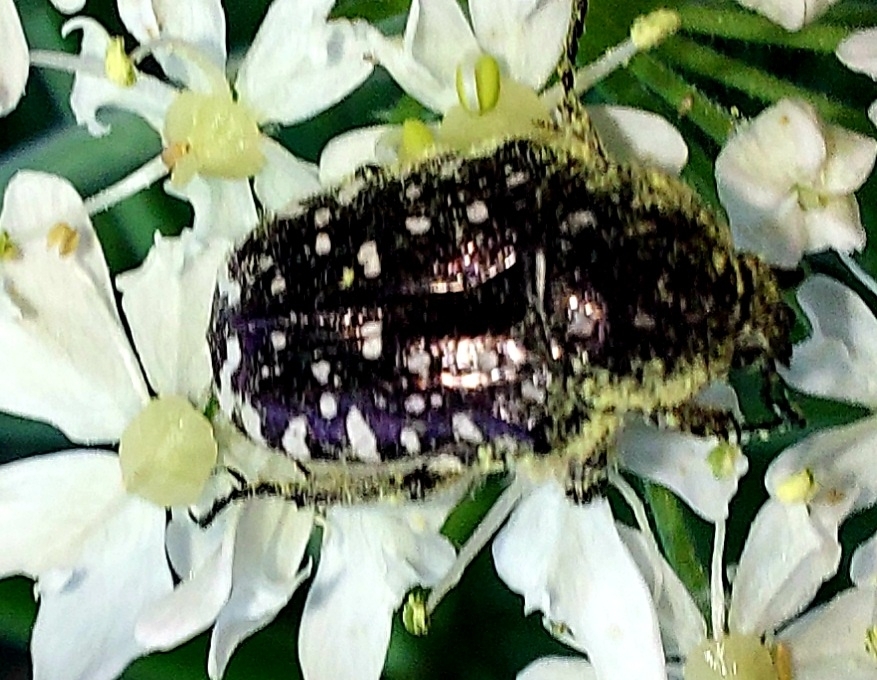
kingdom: Animalia
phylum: Arthropoda
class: Insecta
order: Coleoptera
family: Scarabaeidae
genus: Oxythyrea
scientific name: Oxythyrea funesta
